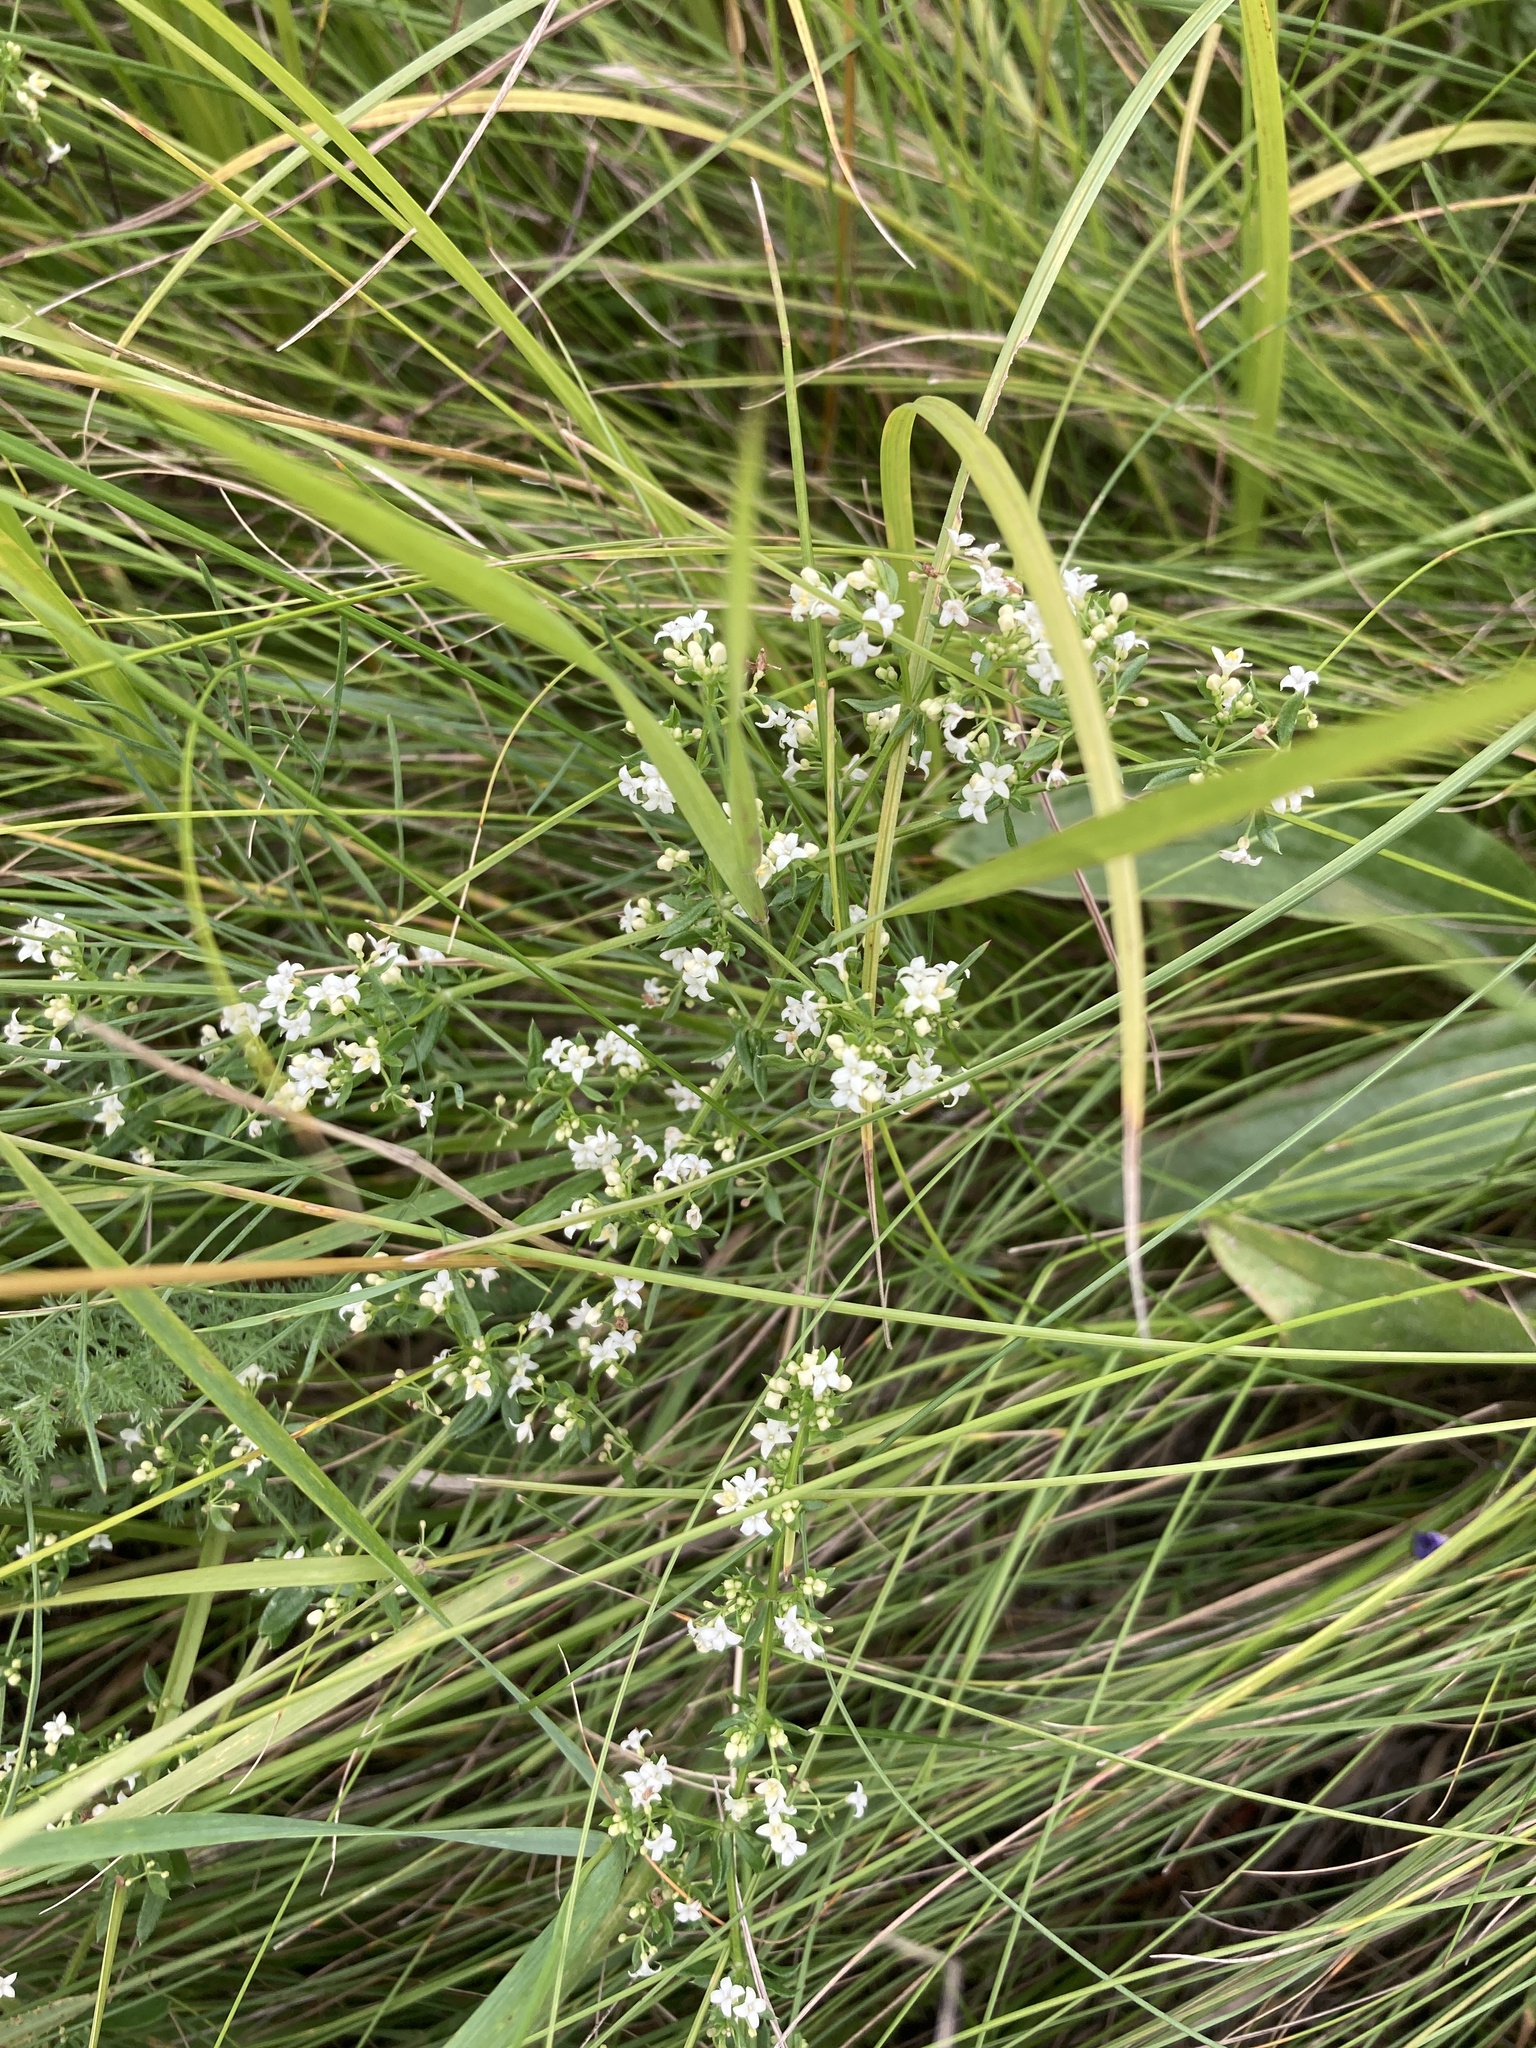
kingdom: Plantae
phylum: Tracheophyta
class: Magnoliopsida
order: Gentianales
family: Rubiaceae
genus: Galium
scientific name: Galium humifusum
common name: Spreading bedstraw
